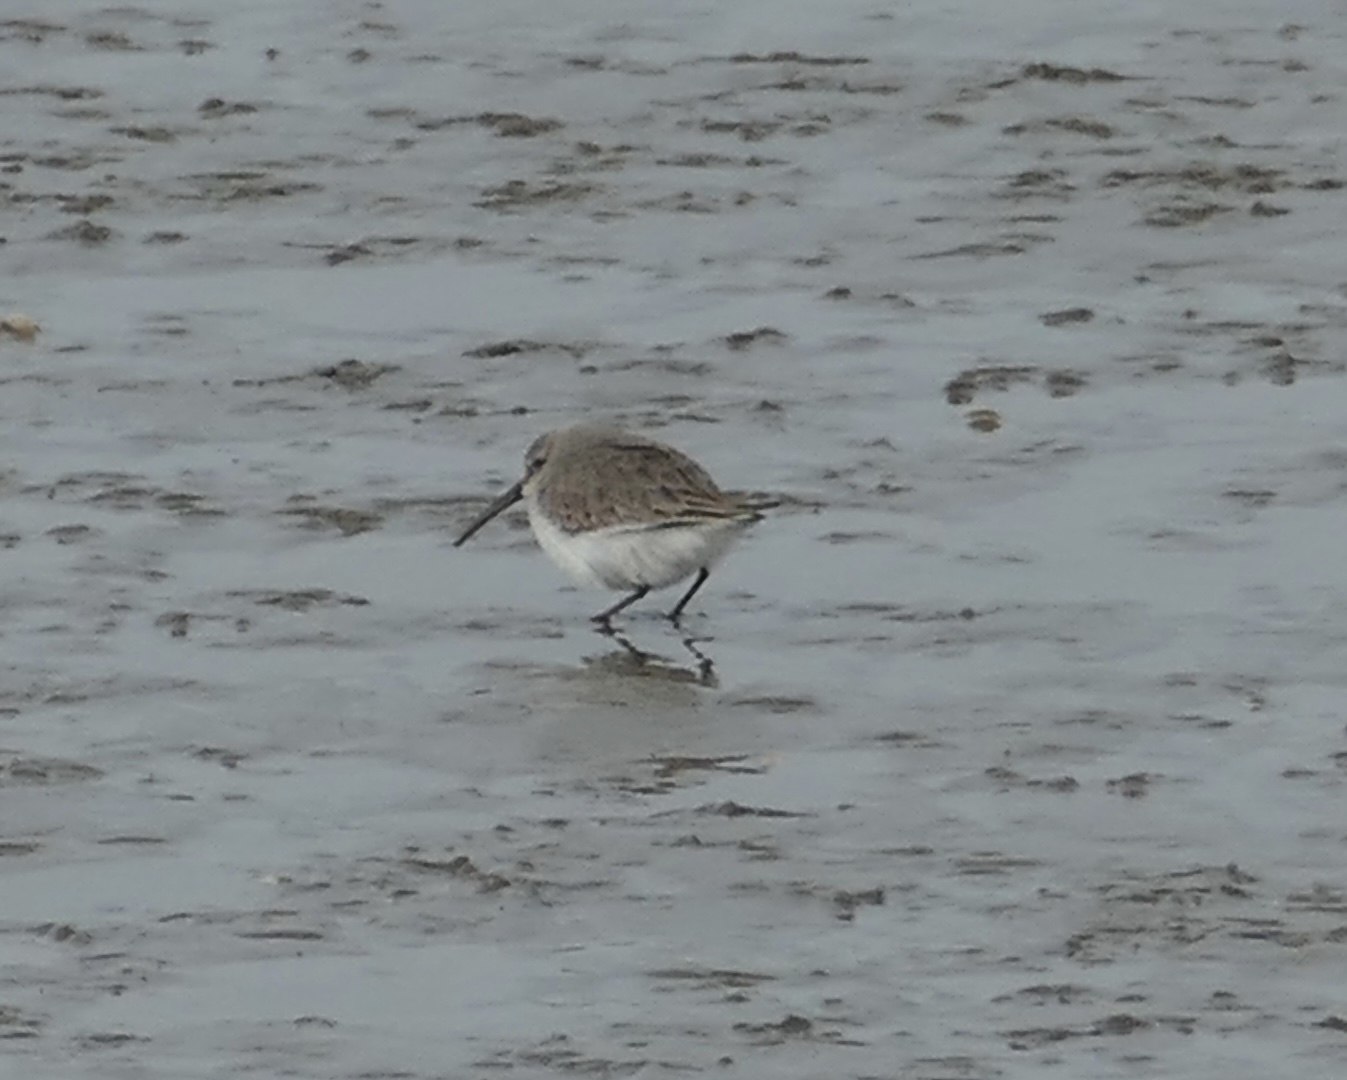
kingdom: Animalia
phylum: Chordata
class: Aves
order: Charadriiformes
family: Scolopacidae
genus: Calidris
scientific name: Calidris alpina
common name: Dunlin
